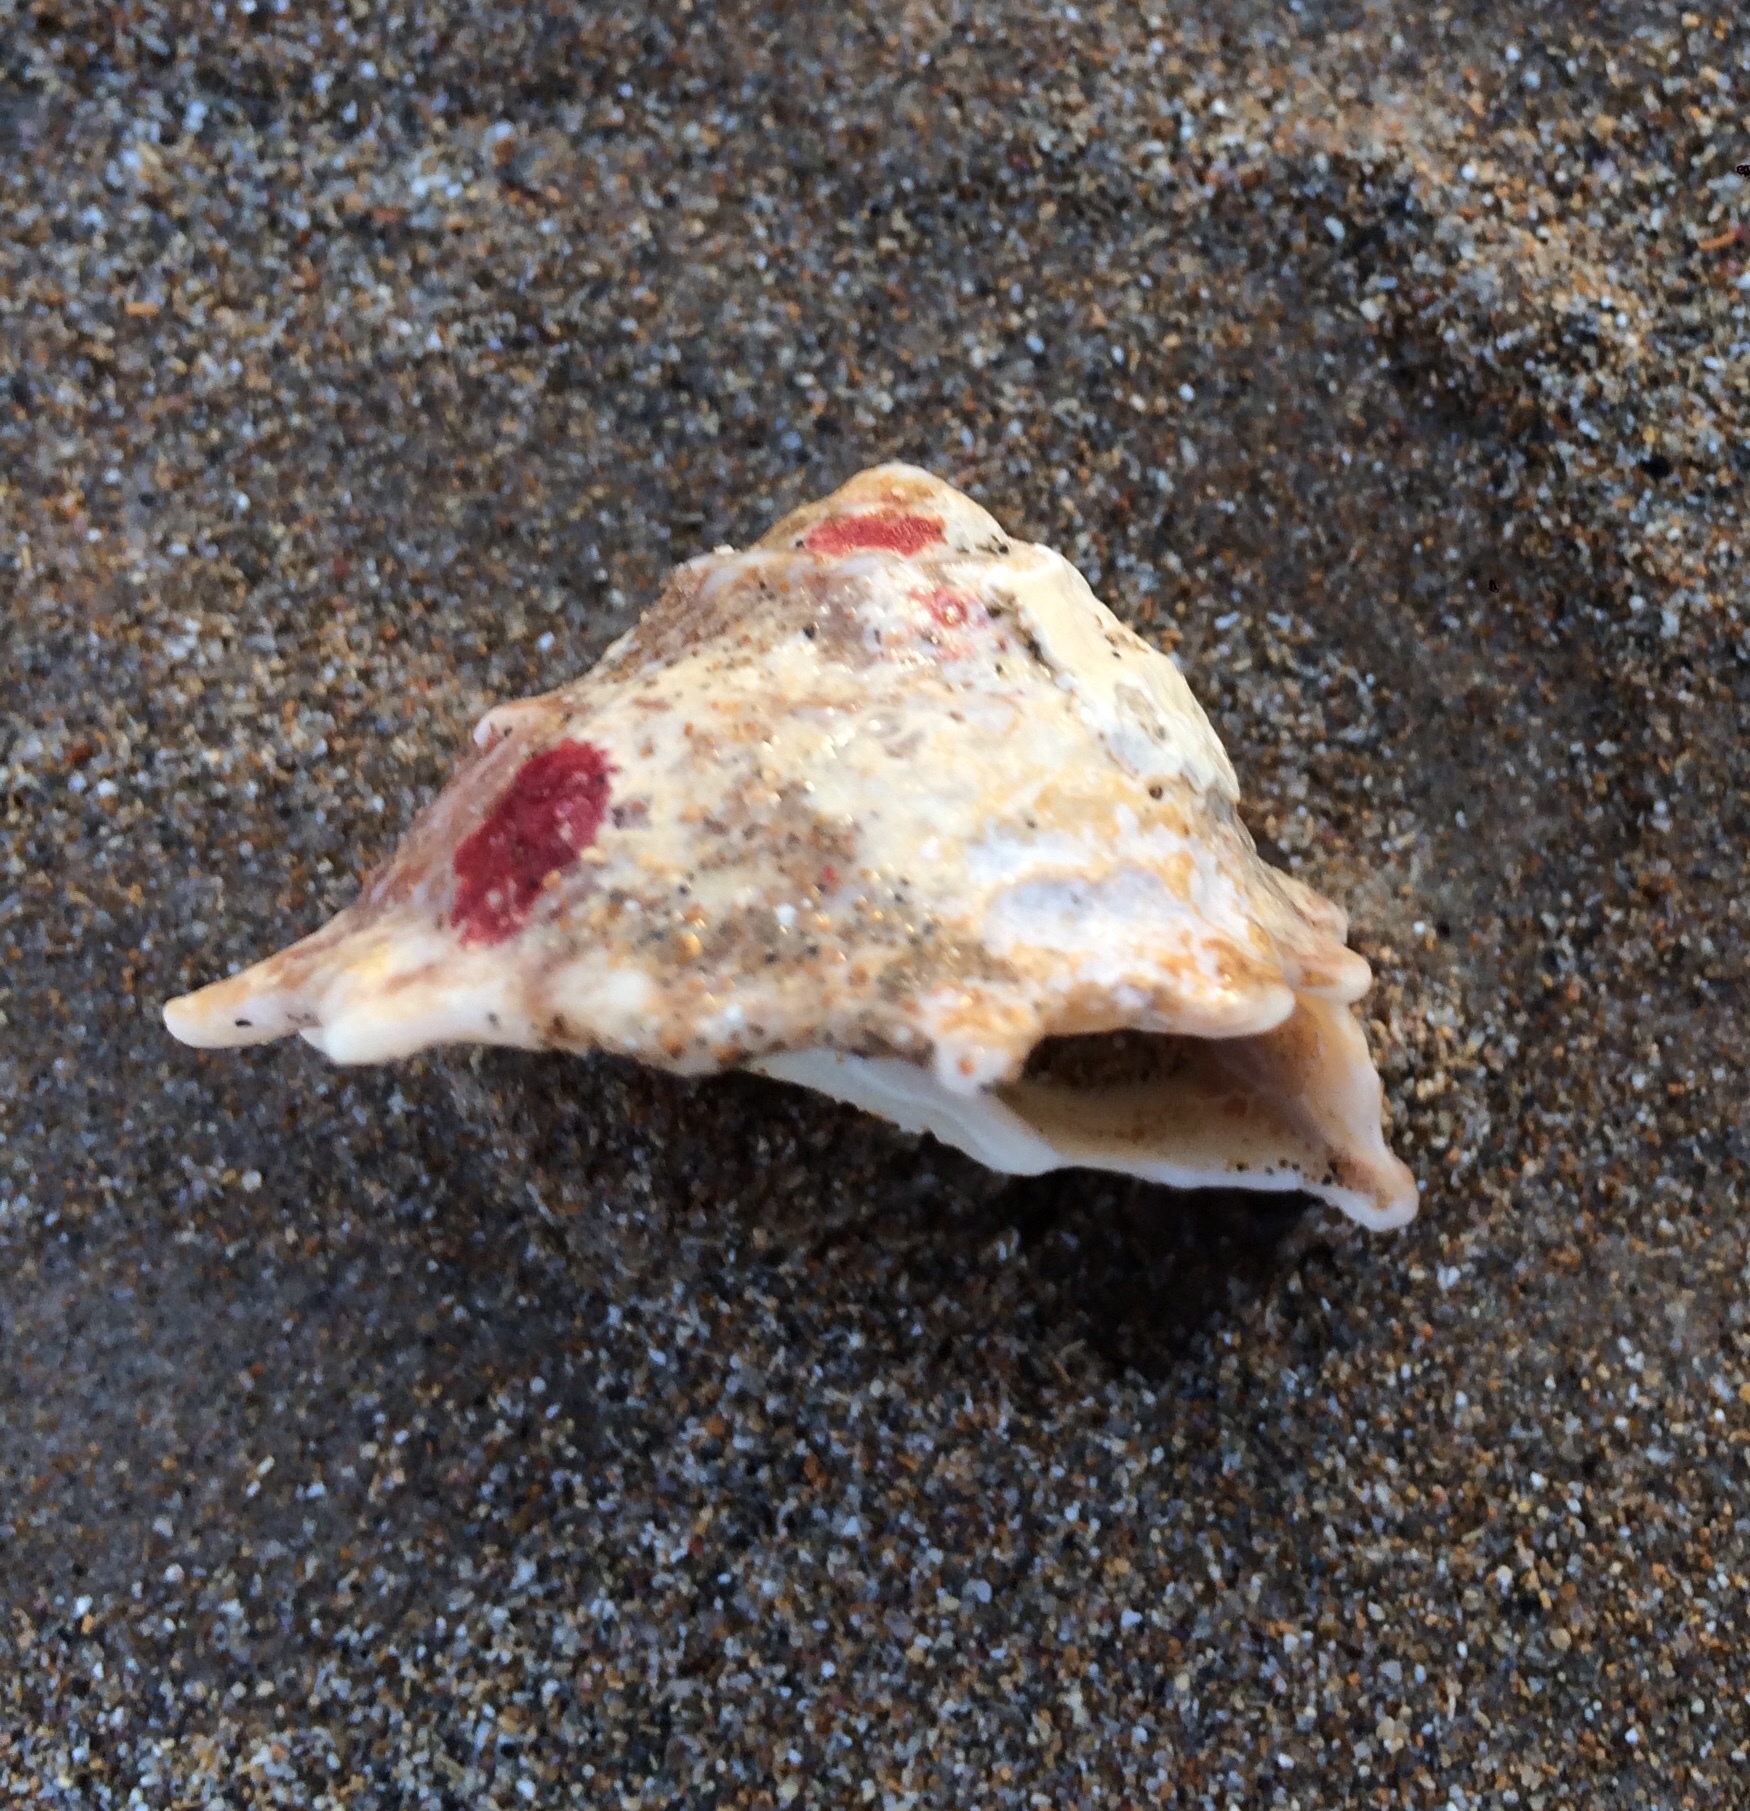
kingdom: Animalia
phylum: Mollusca
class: Gastropoda
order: Trochida
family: Turbinidae
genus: Astralium
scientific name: Astralium latispina
